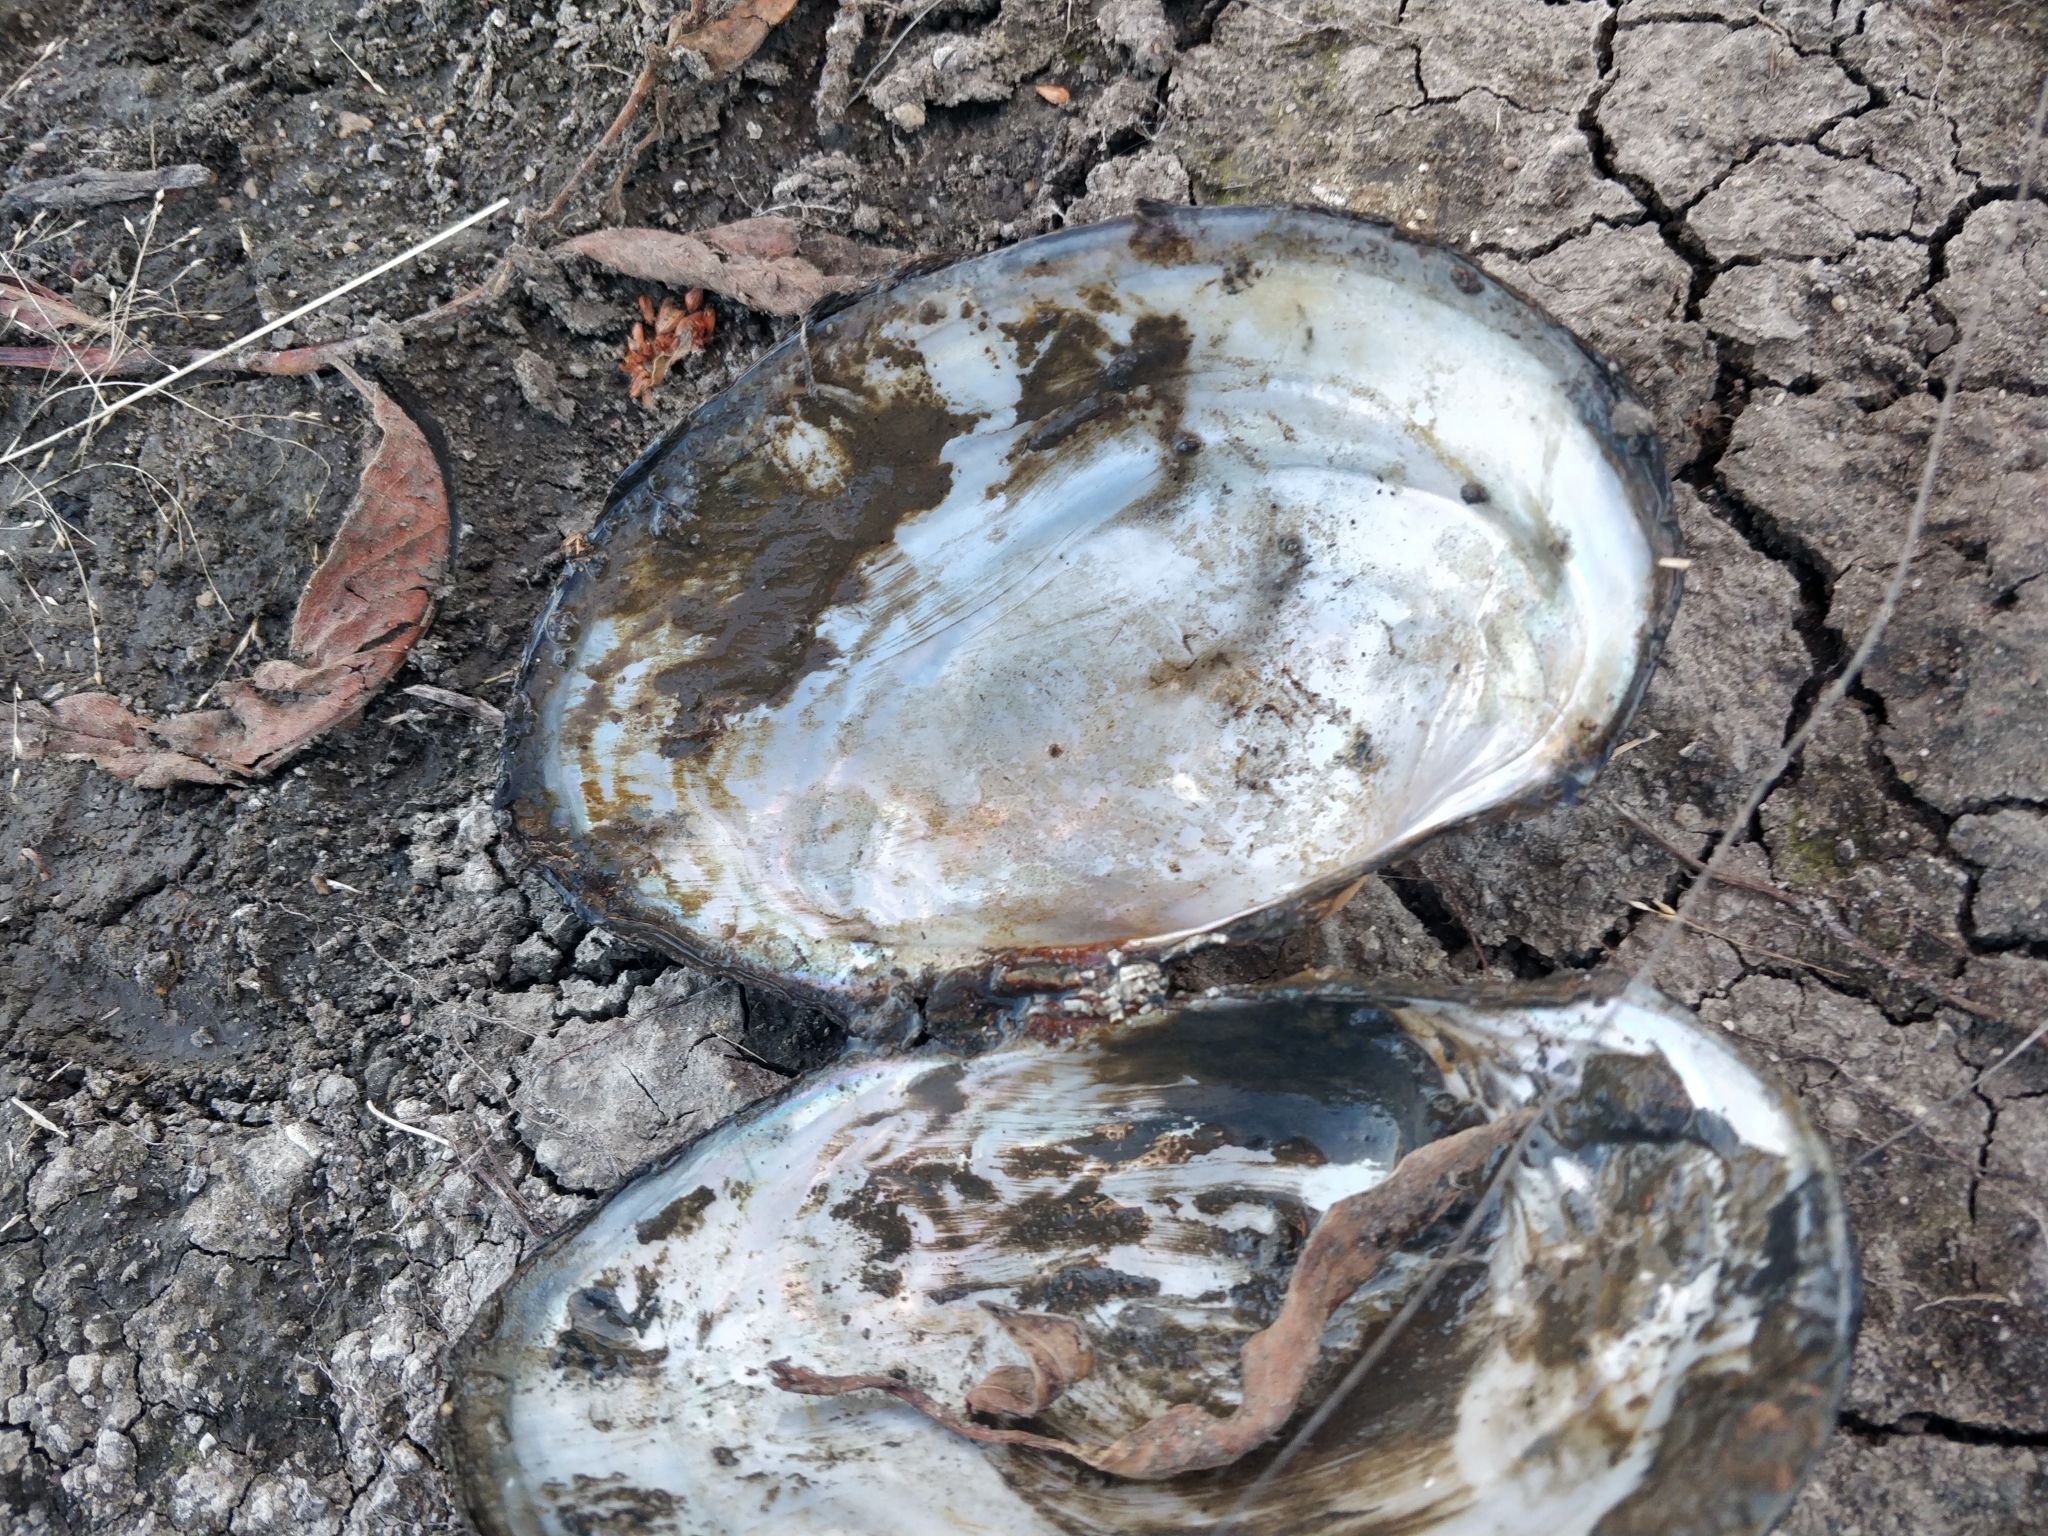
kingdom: Animalia
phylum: Mollusca
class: Bivalvia
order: Unionida
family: Unionidae
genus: Pyganodon
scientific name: Pyganodon grandis
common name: Giant floater
